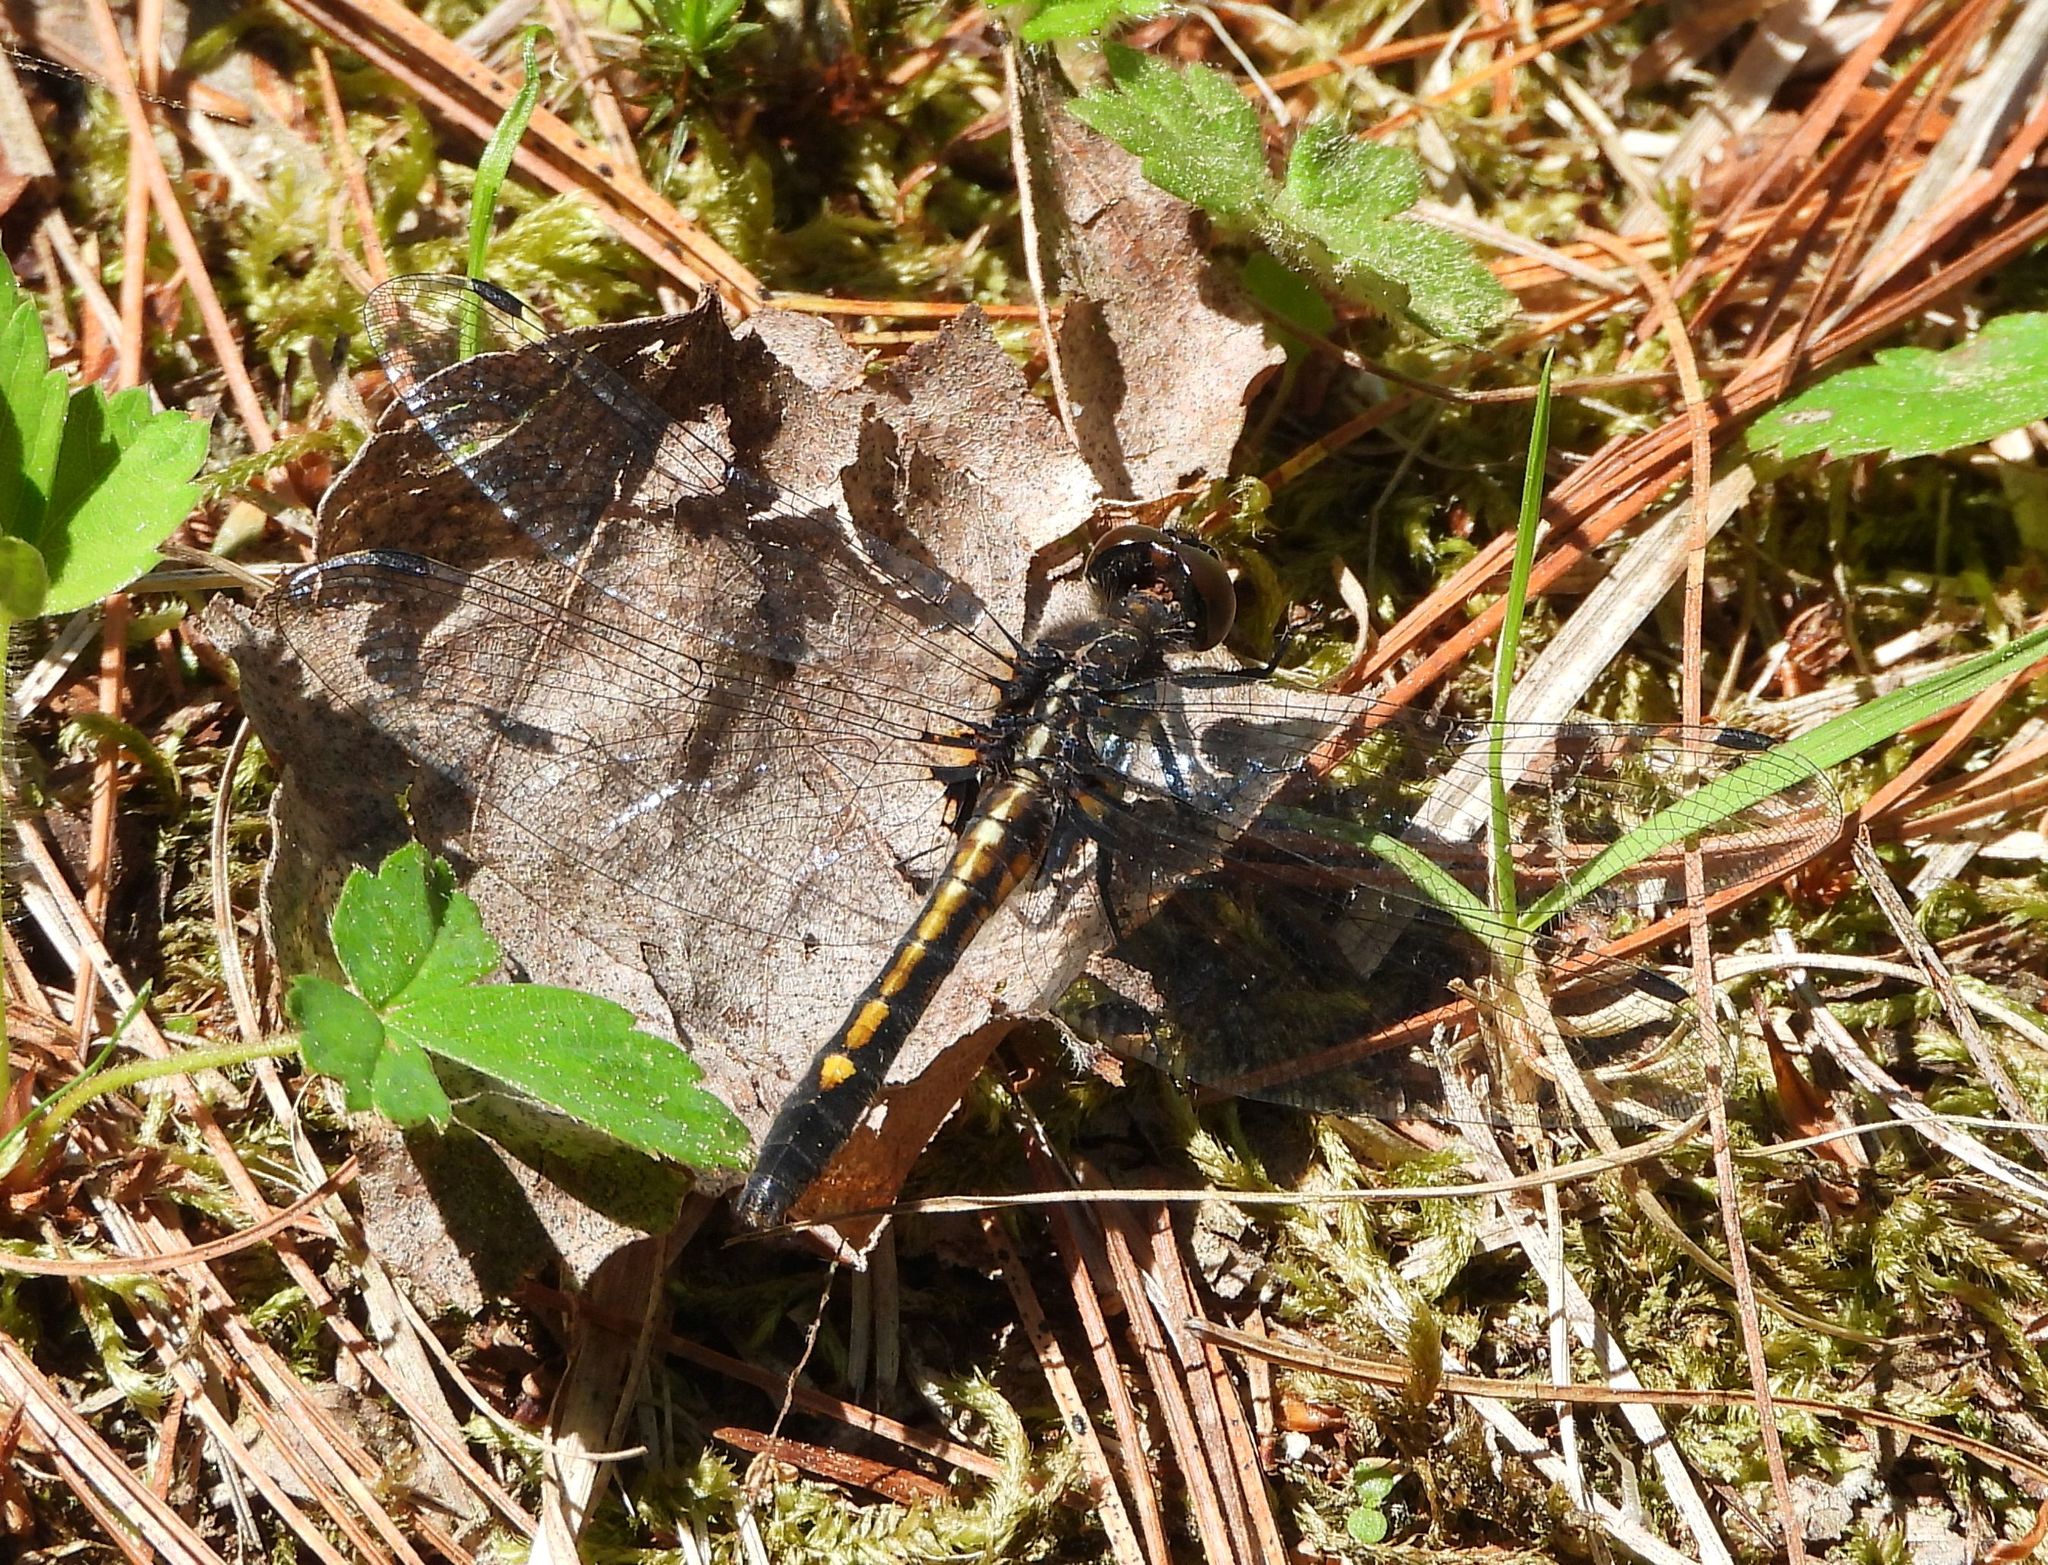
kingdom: Animalia
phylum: Arthropoda
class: Insecta
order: Odonata
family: Libellulidae
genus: Leucorrhinia
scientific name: Leucorrhinia intacta
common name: Dot-tailed whiteface
